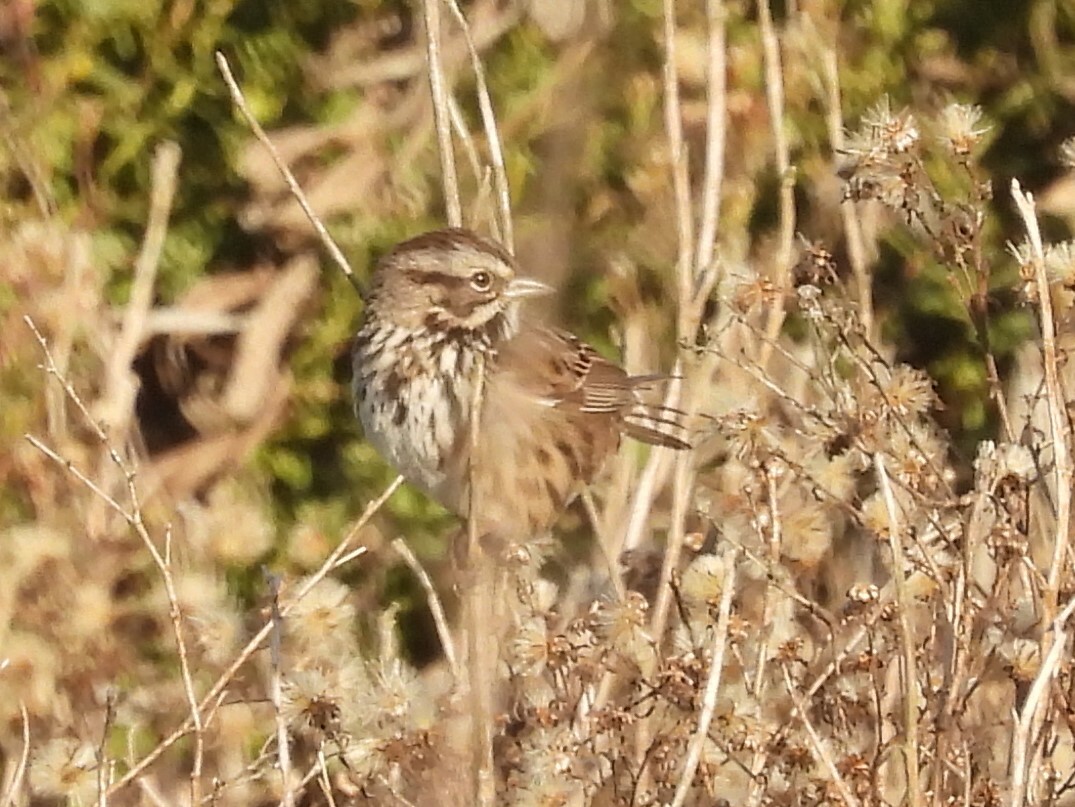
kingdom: Animalia
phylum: Chordata
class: Aves
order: Passeriformes
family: Passerellidae
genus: Melospiza
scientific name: Melospiza melodia
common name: Song sparrow
